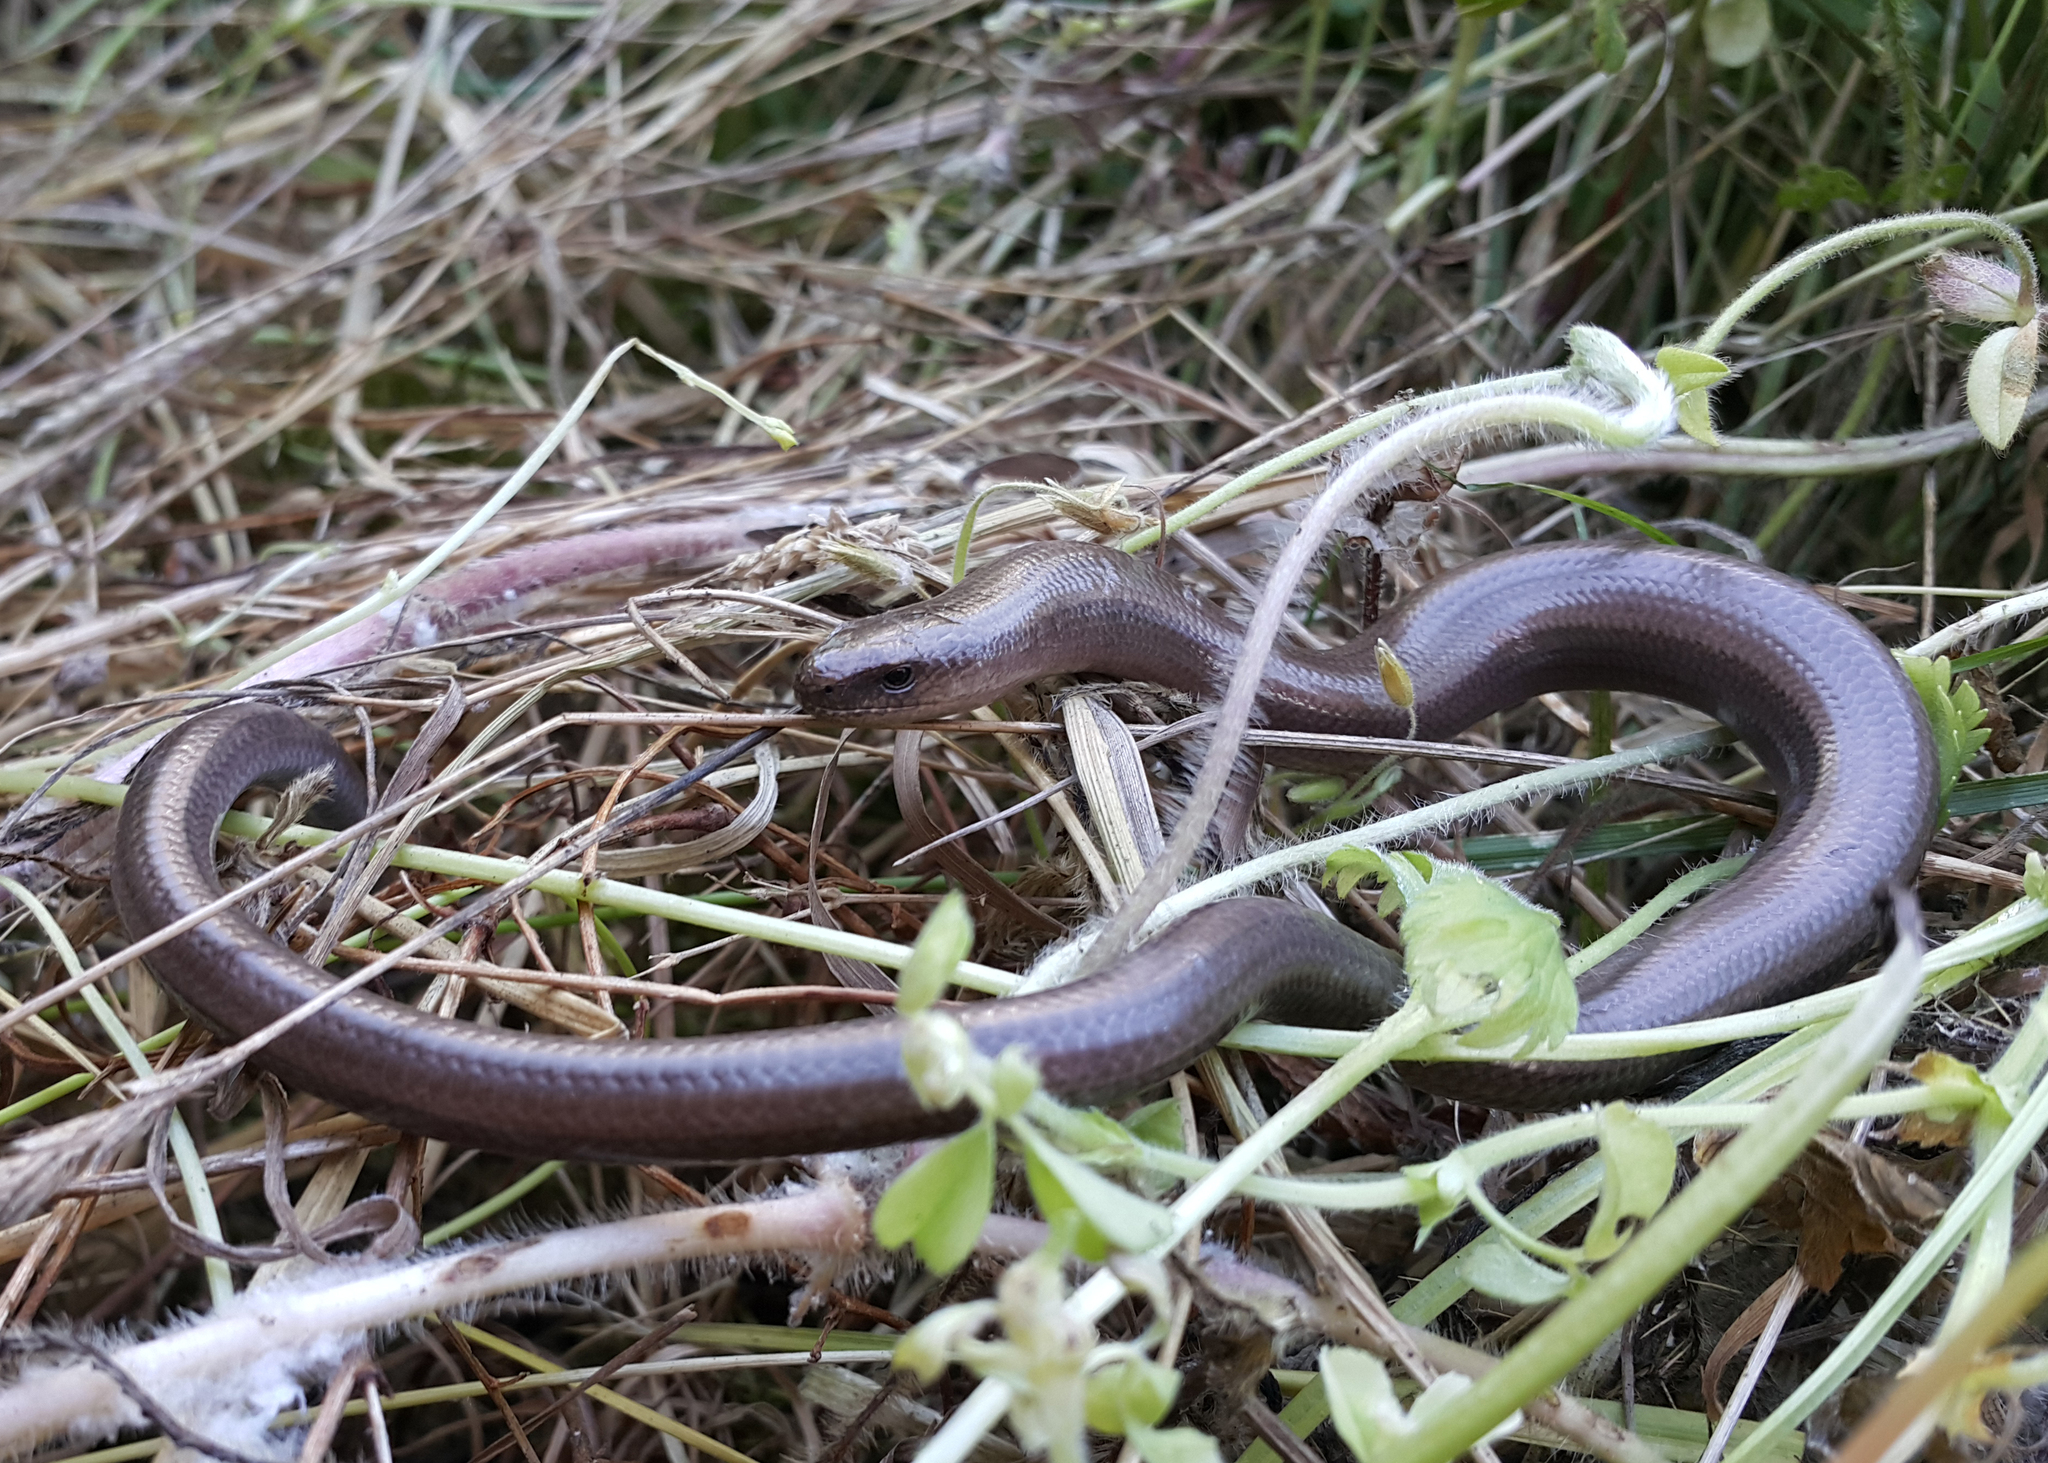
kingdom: Animalia
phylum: Chordata
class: Squamata
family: Anguidae
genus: Anguis
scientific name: Anguis fragilis
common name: Slow worm
